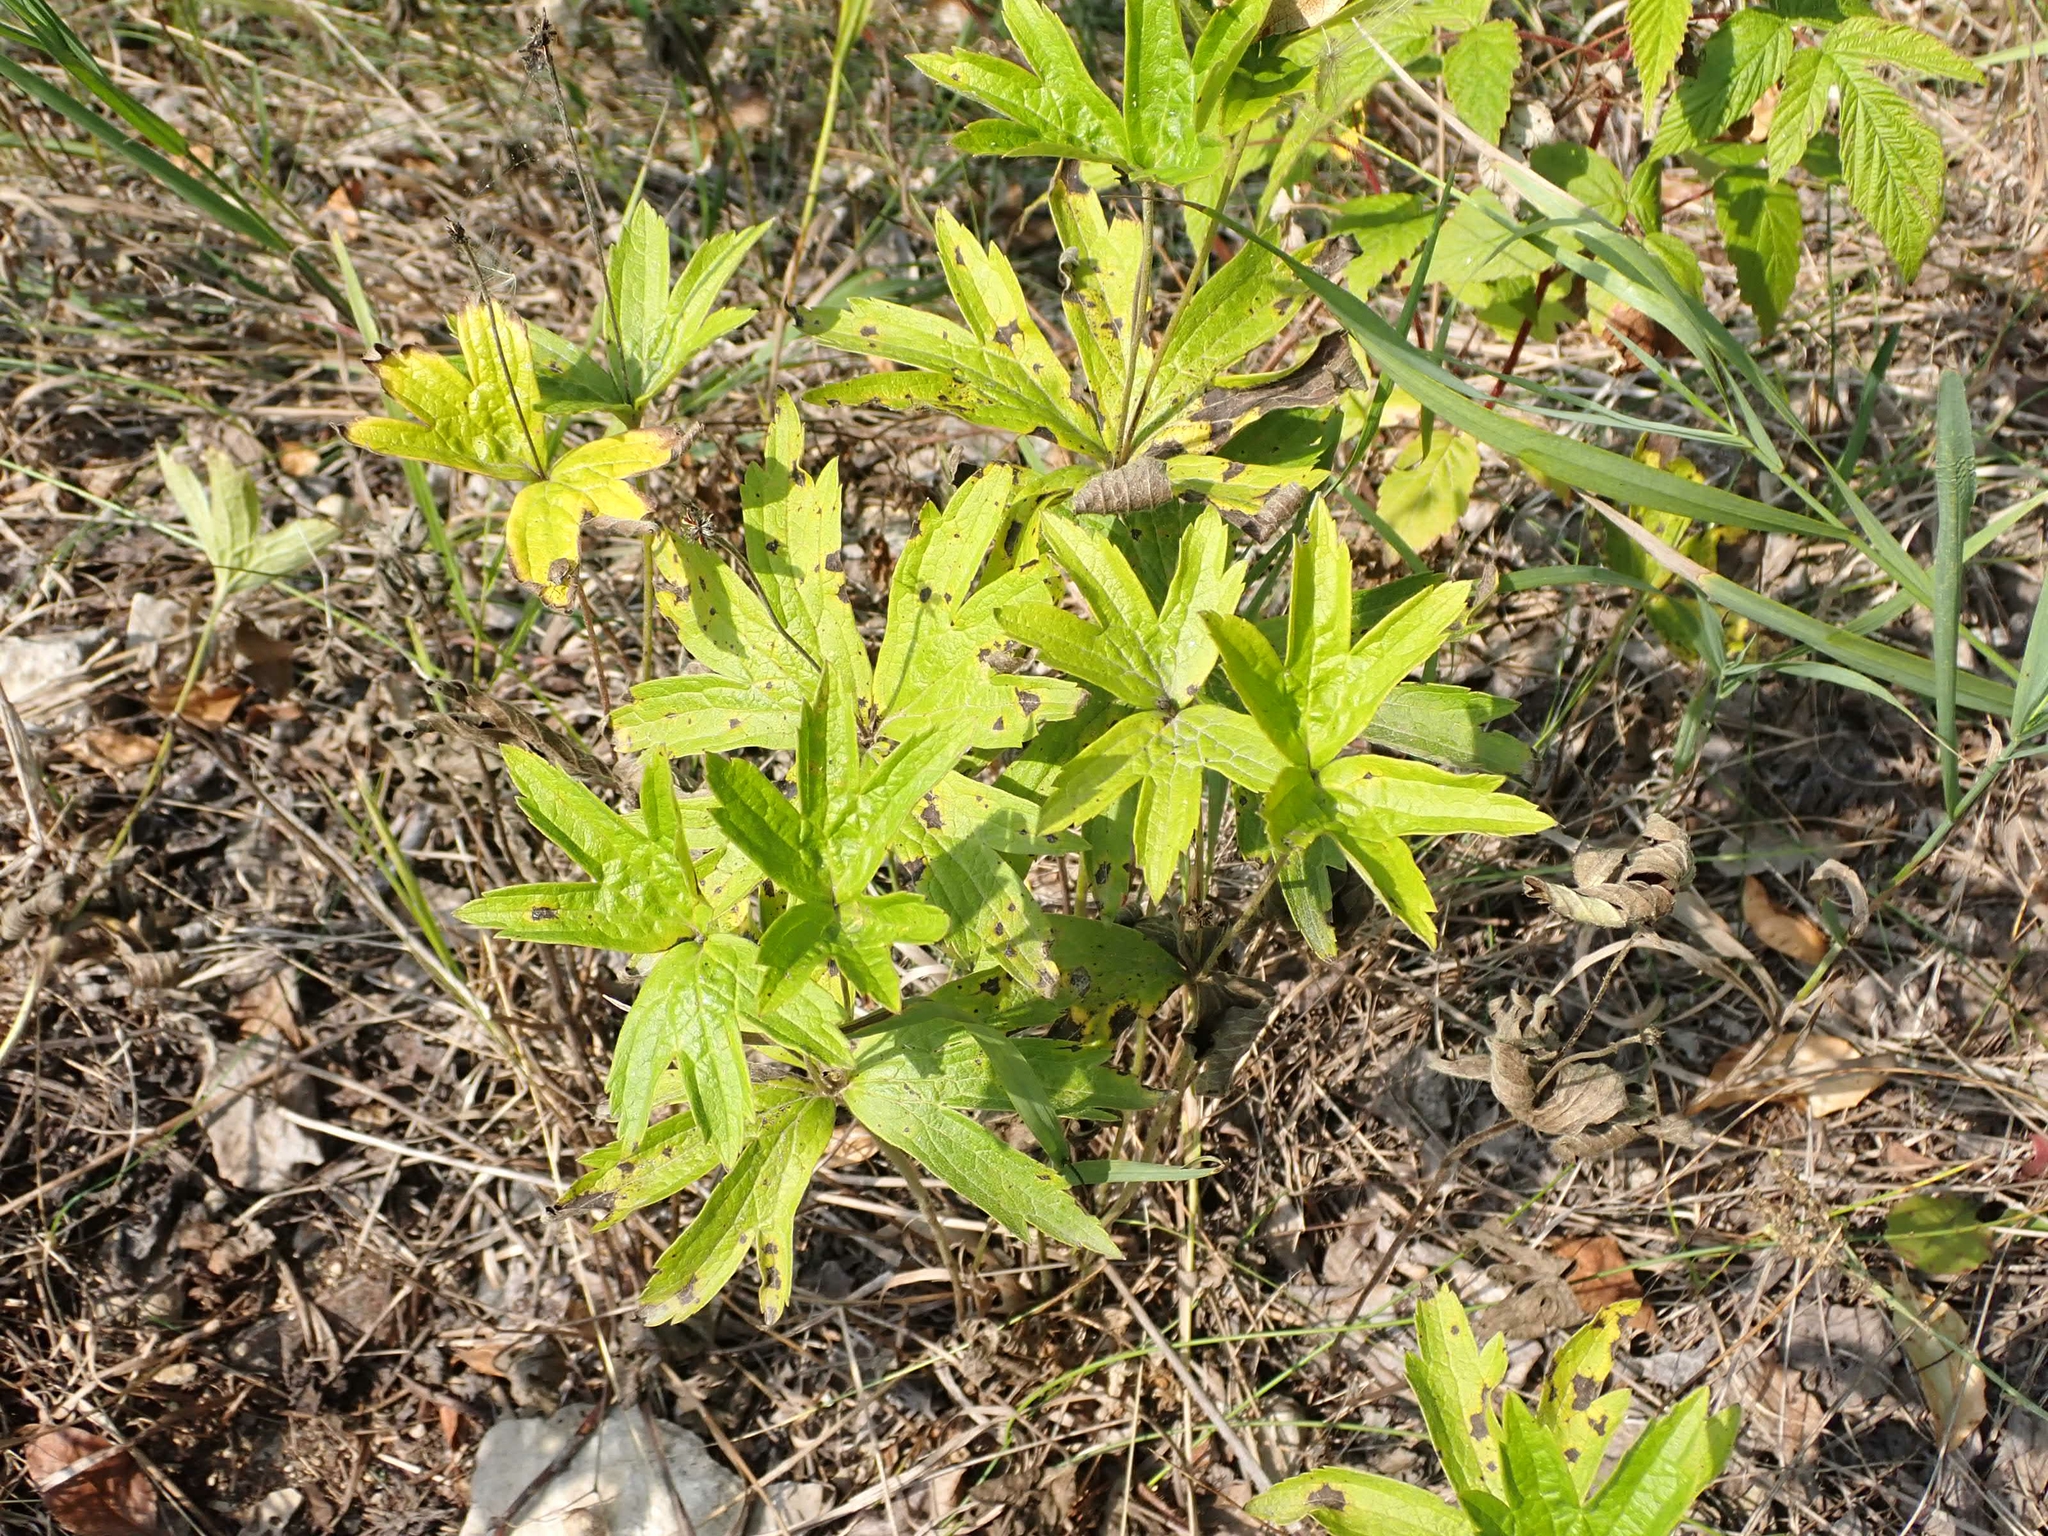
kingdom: Plantae
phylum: Tracheophyta
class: Magnoliopsida
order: Ranunculales
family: Ranunculaceae
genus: Anemonastrum
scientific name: Anemonastrum canadense
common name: Canada anemone
